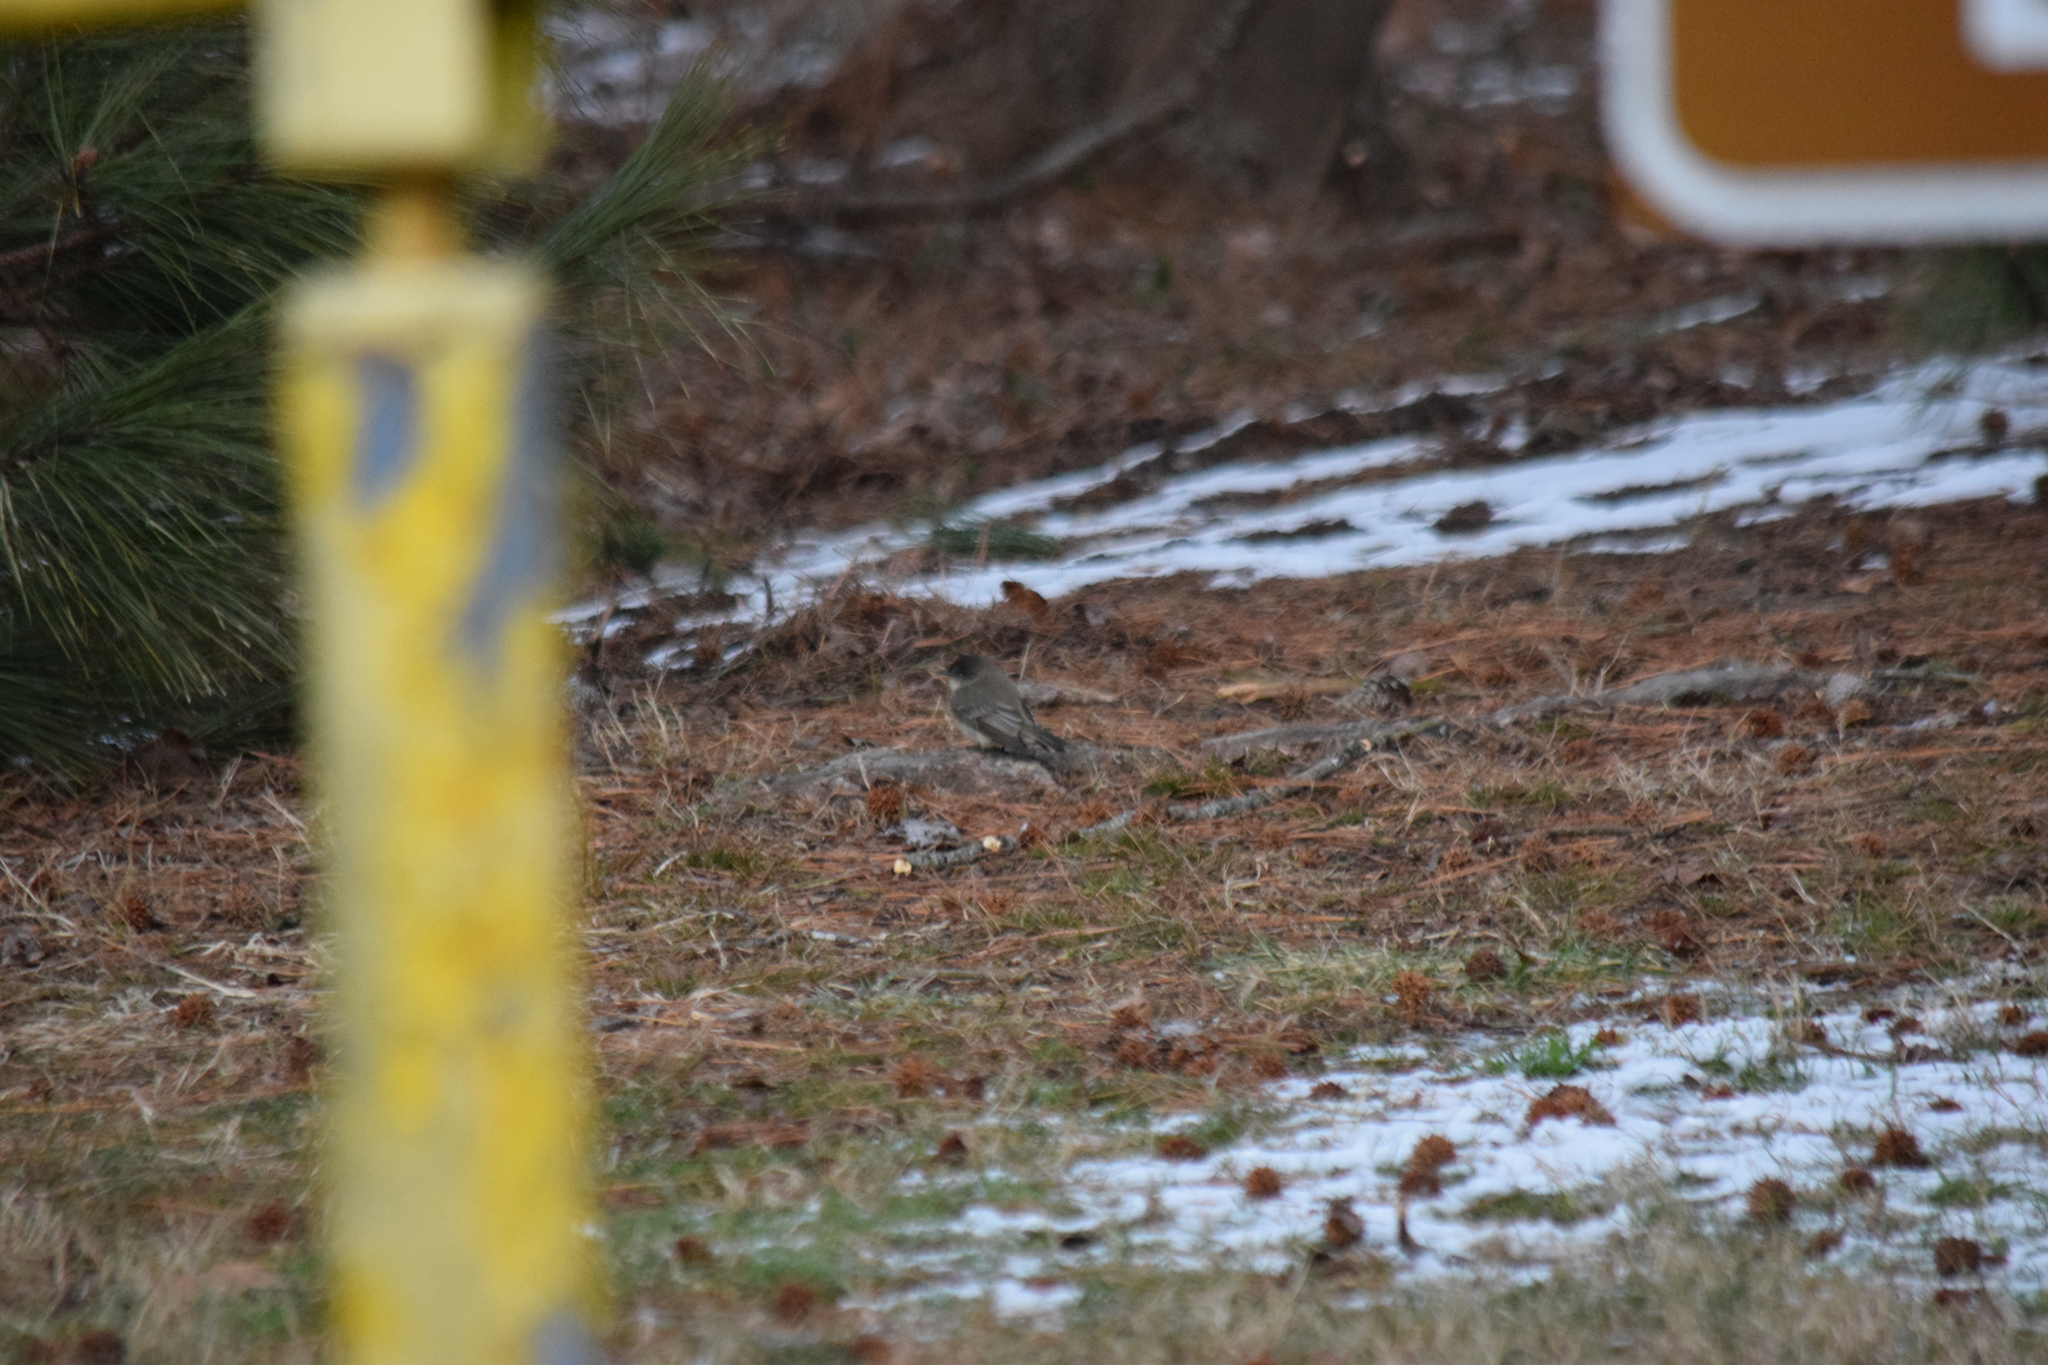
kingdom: Animalia
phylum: Chordata
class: Aves
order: Passeriformes
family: Tyrannidae
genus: Sayornis
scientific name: Sayornis phoebe
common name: Eastern phoebe
